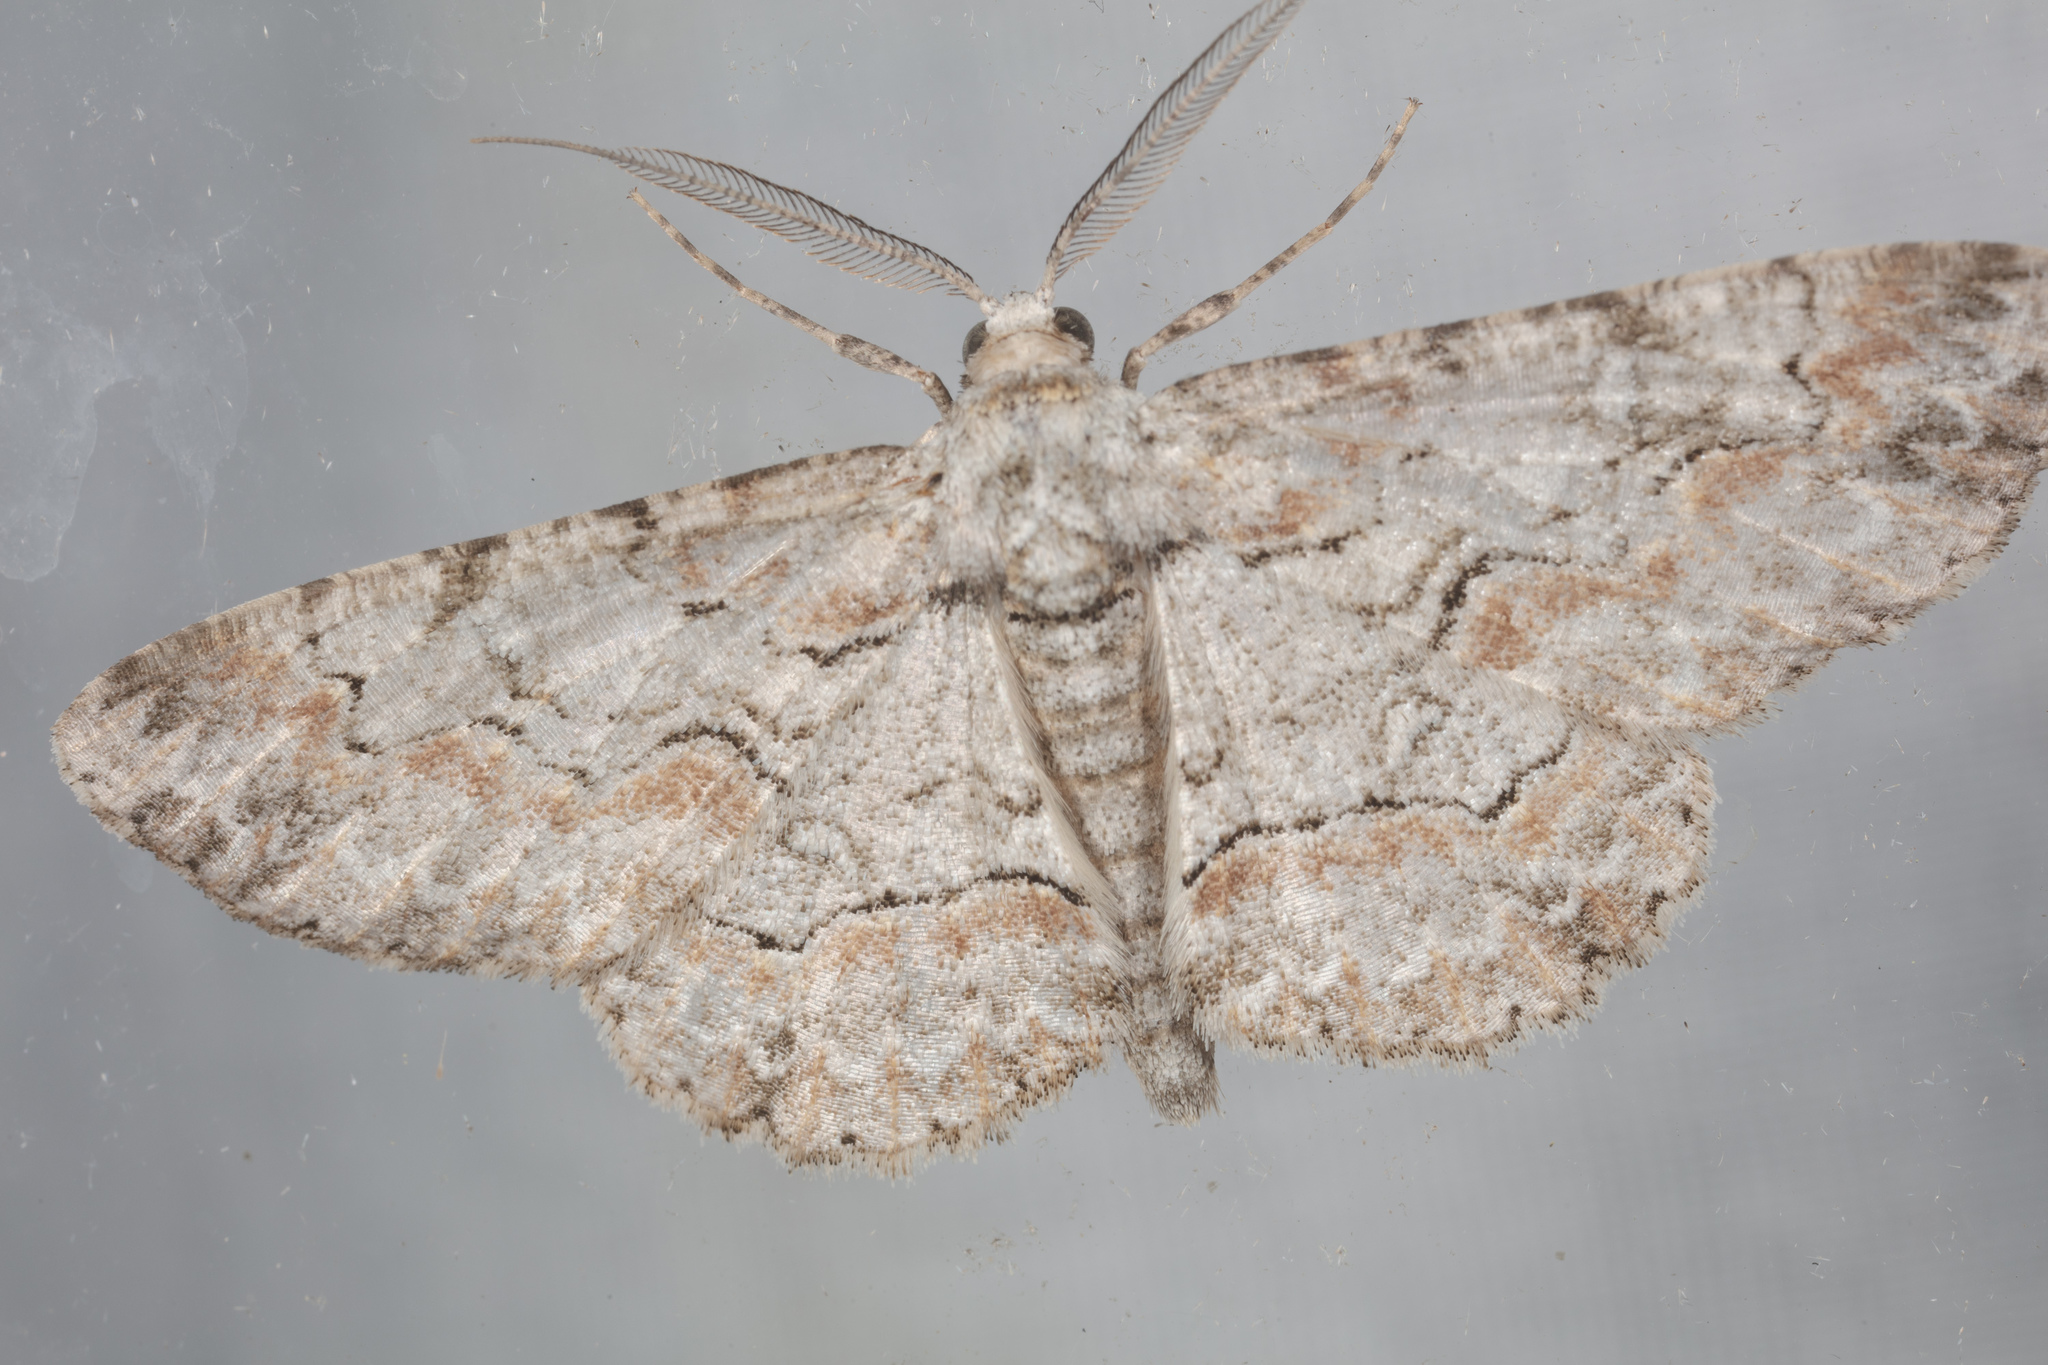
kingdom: Animalia
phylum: Arthropoda
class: Insecta
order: Lepidoptera
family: Geometridae
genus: Iridopsis
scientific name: Iridopsis defectaria
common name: Brown-shaded gray
